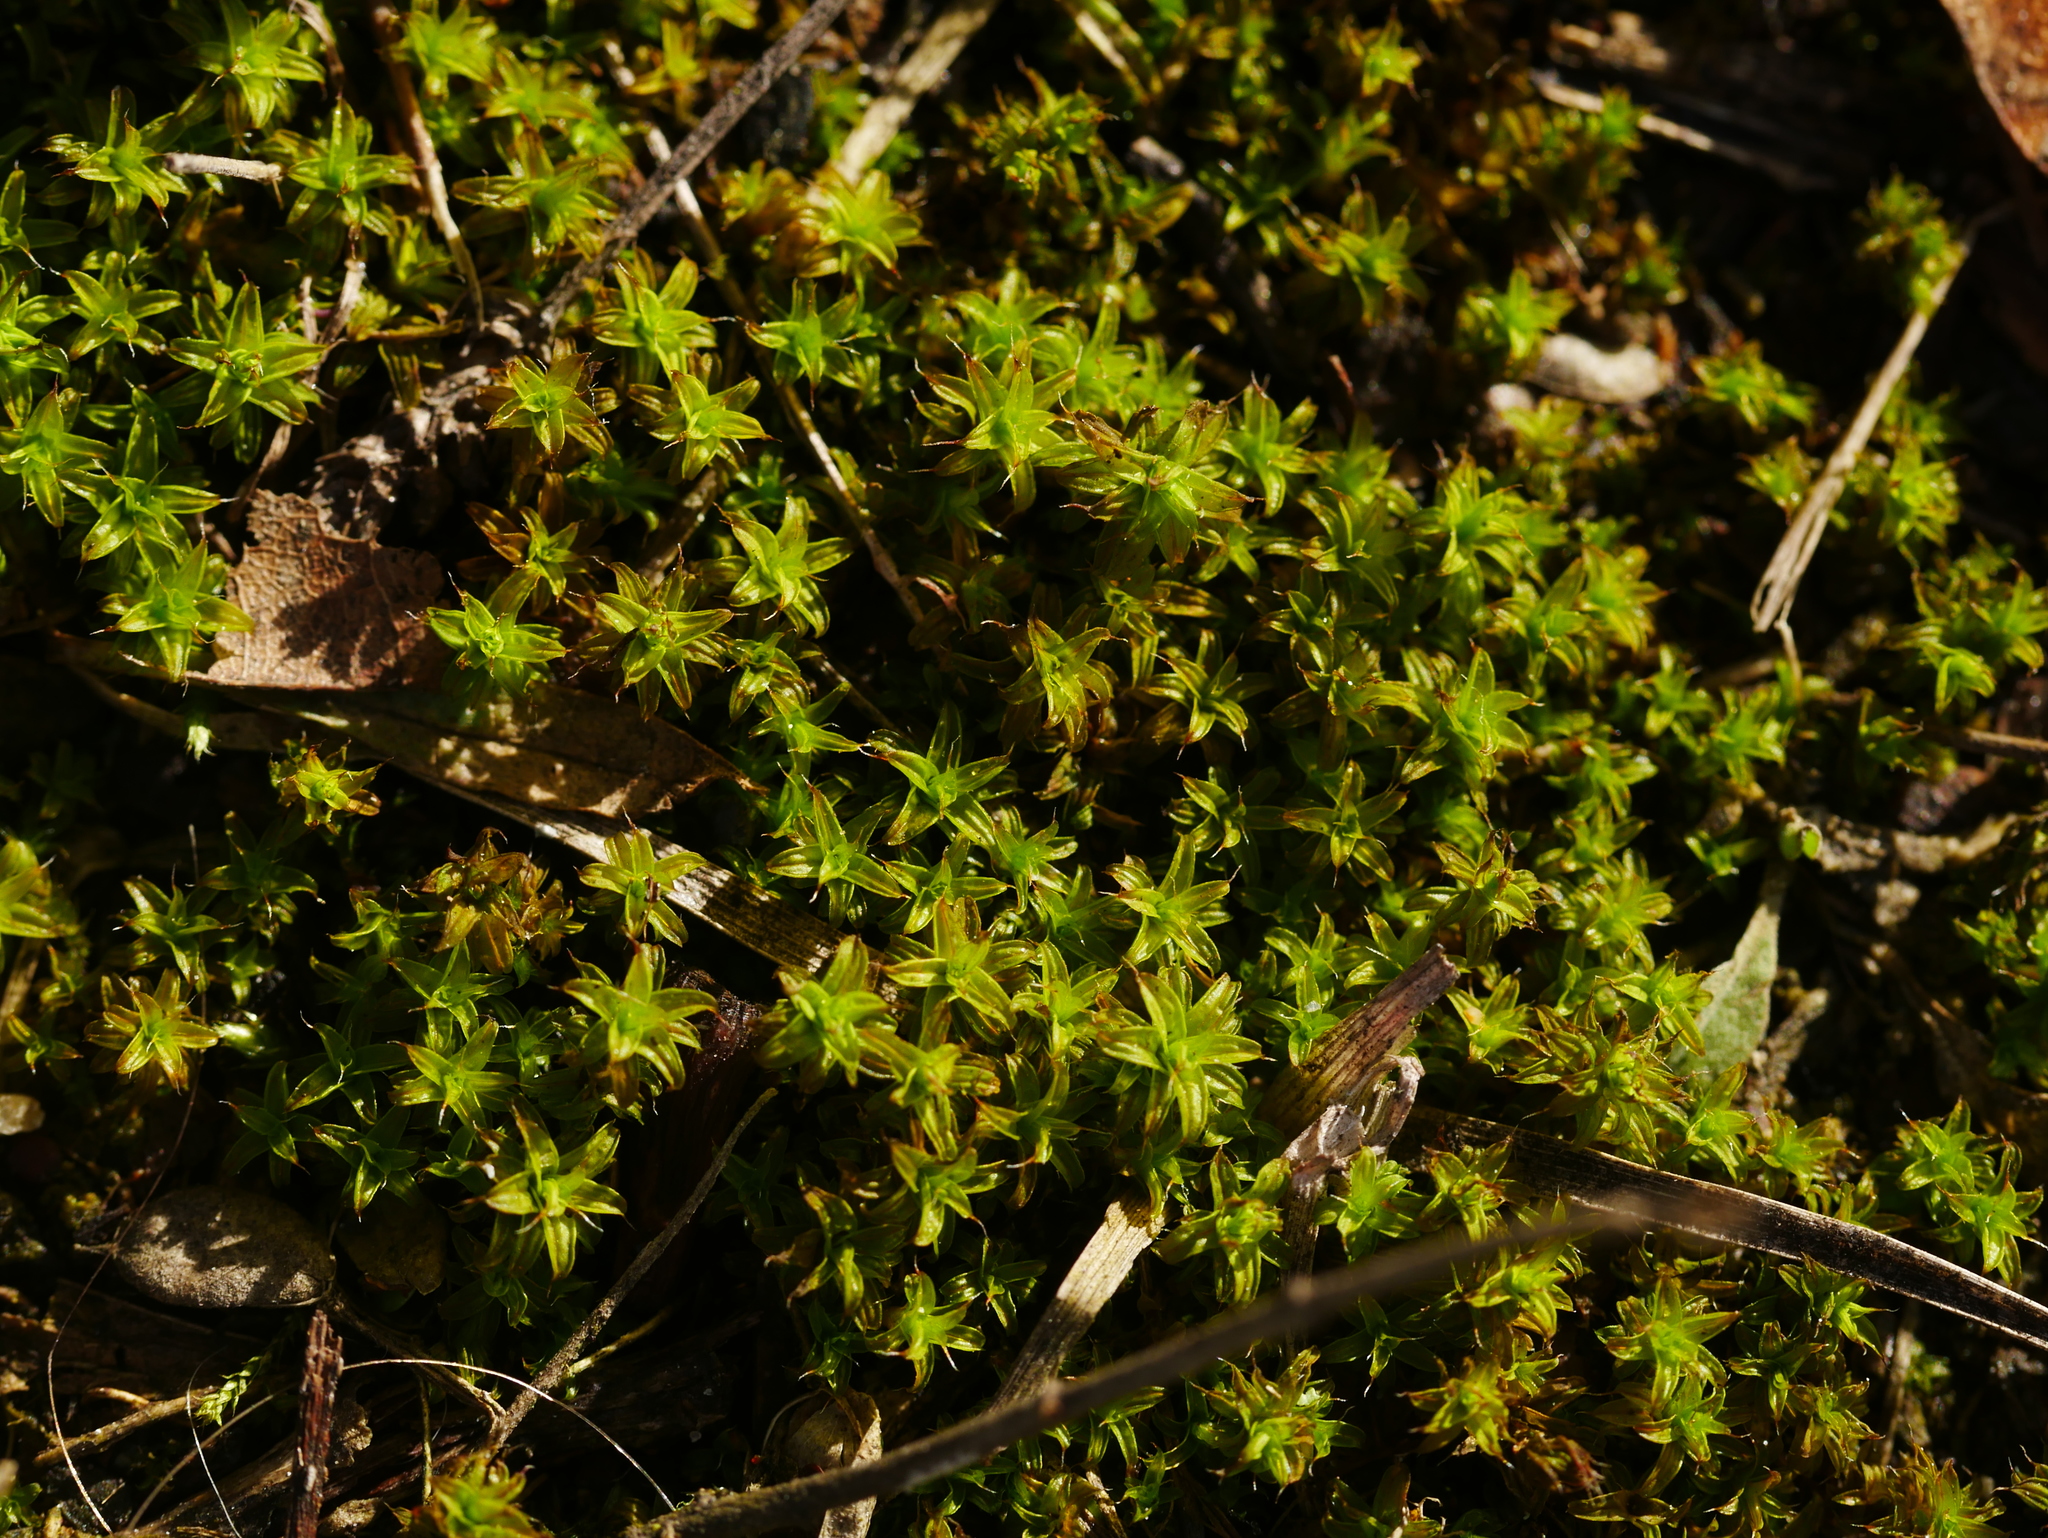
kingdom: Plantae
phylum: Bryophyta
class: Bryopsida
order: Pottiales
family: Pottiaceae
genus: Syntrichia
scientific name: Syntrichia ruralis
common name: Sidewalk screw moss
